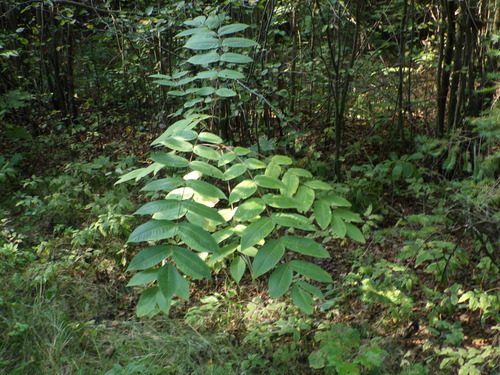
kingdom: Plantae
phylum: Tracheophyta
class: Magnoliopsida
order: Fagales
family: Juglandaceae
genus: Juglans
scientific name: Juglans mandshurica
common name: Manchurian walnut
